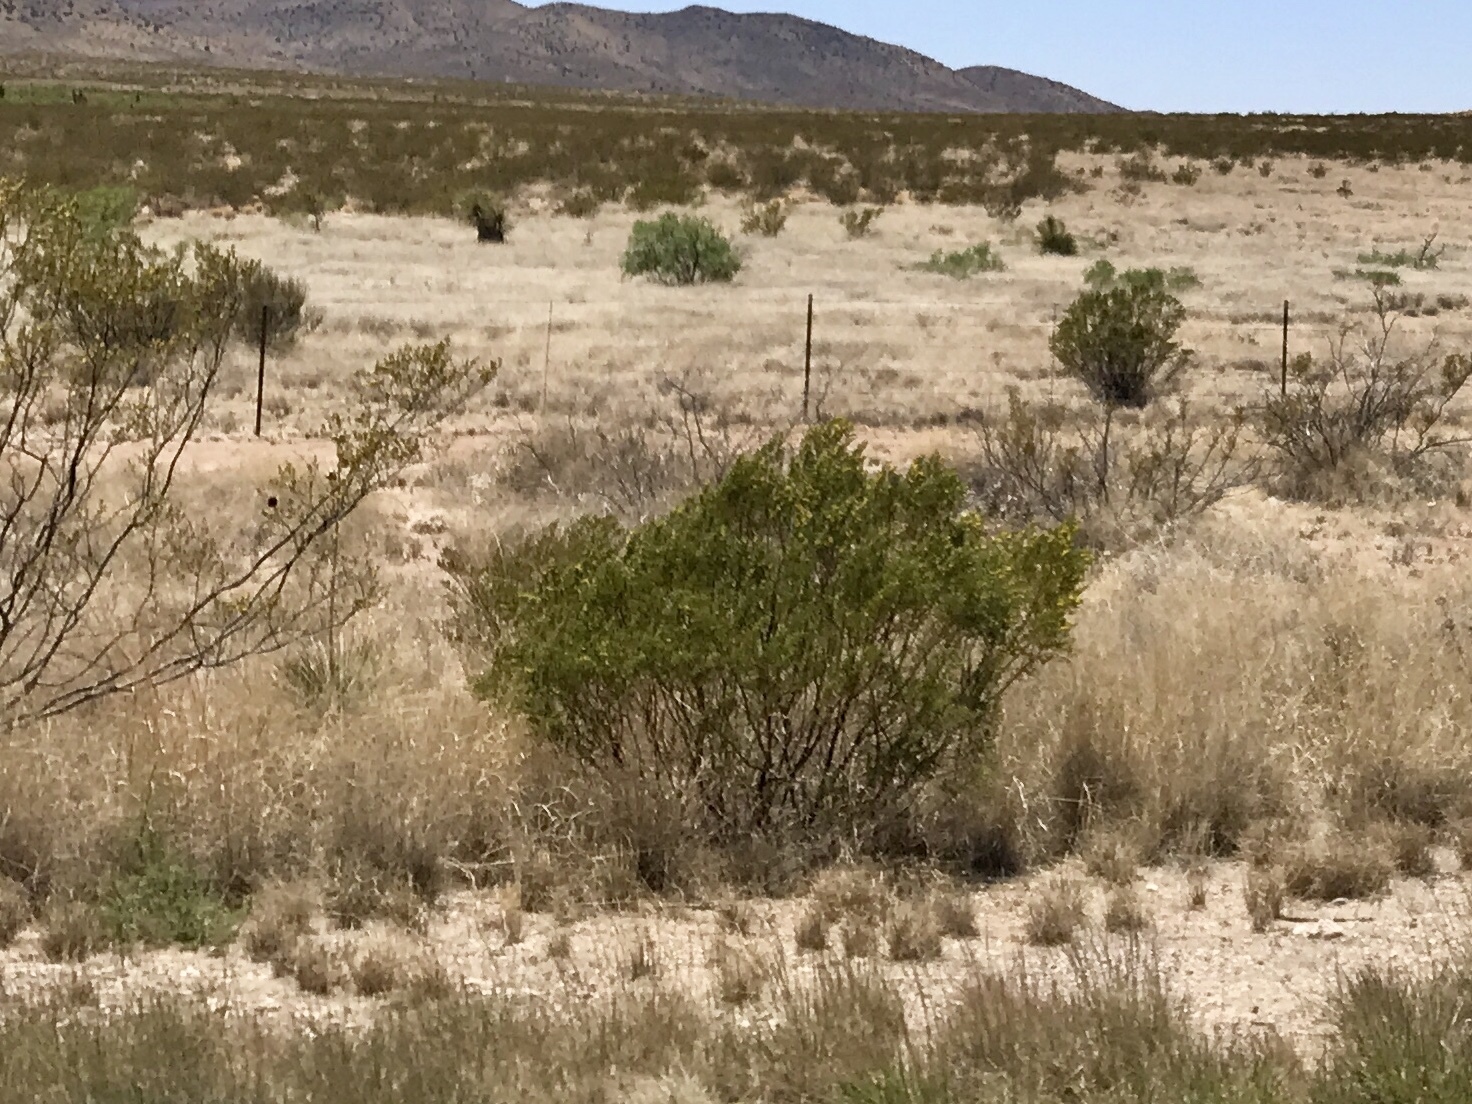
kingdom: Plantae
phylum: Tracheophyta
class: Magnoliopsida
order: Zygophyllales
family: Zygophyllaceae
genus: Larrea
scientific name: Larrea tridentata
